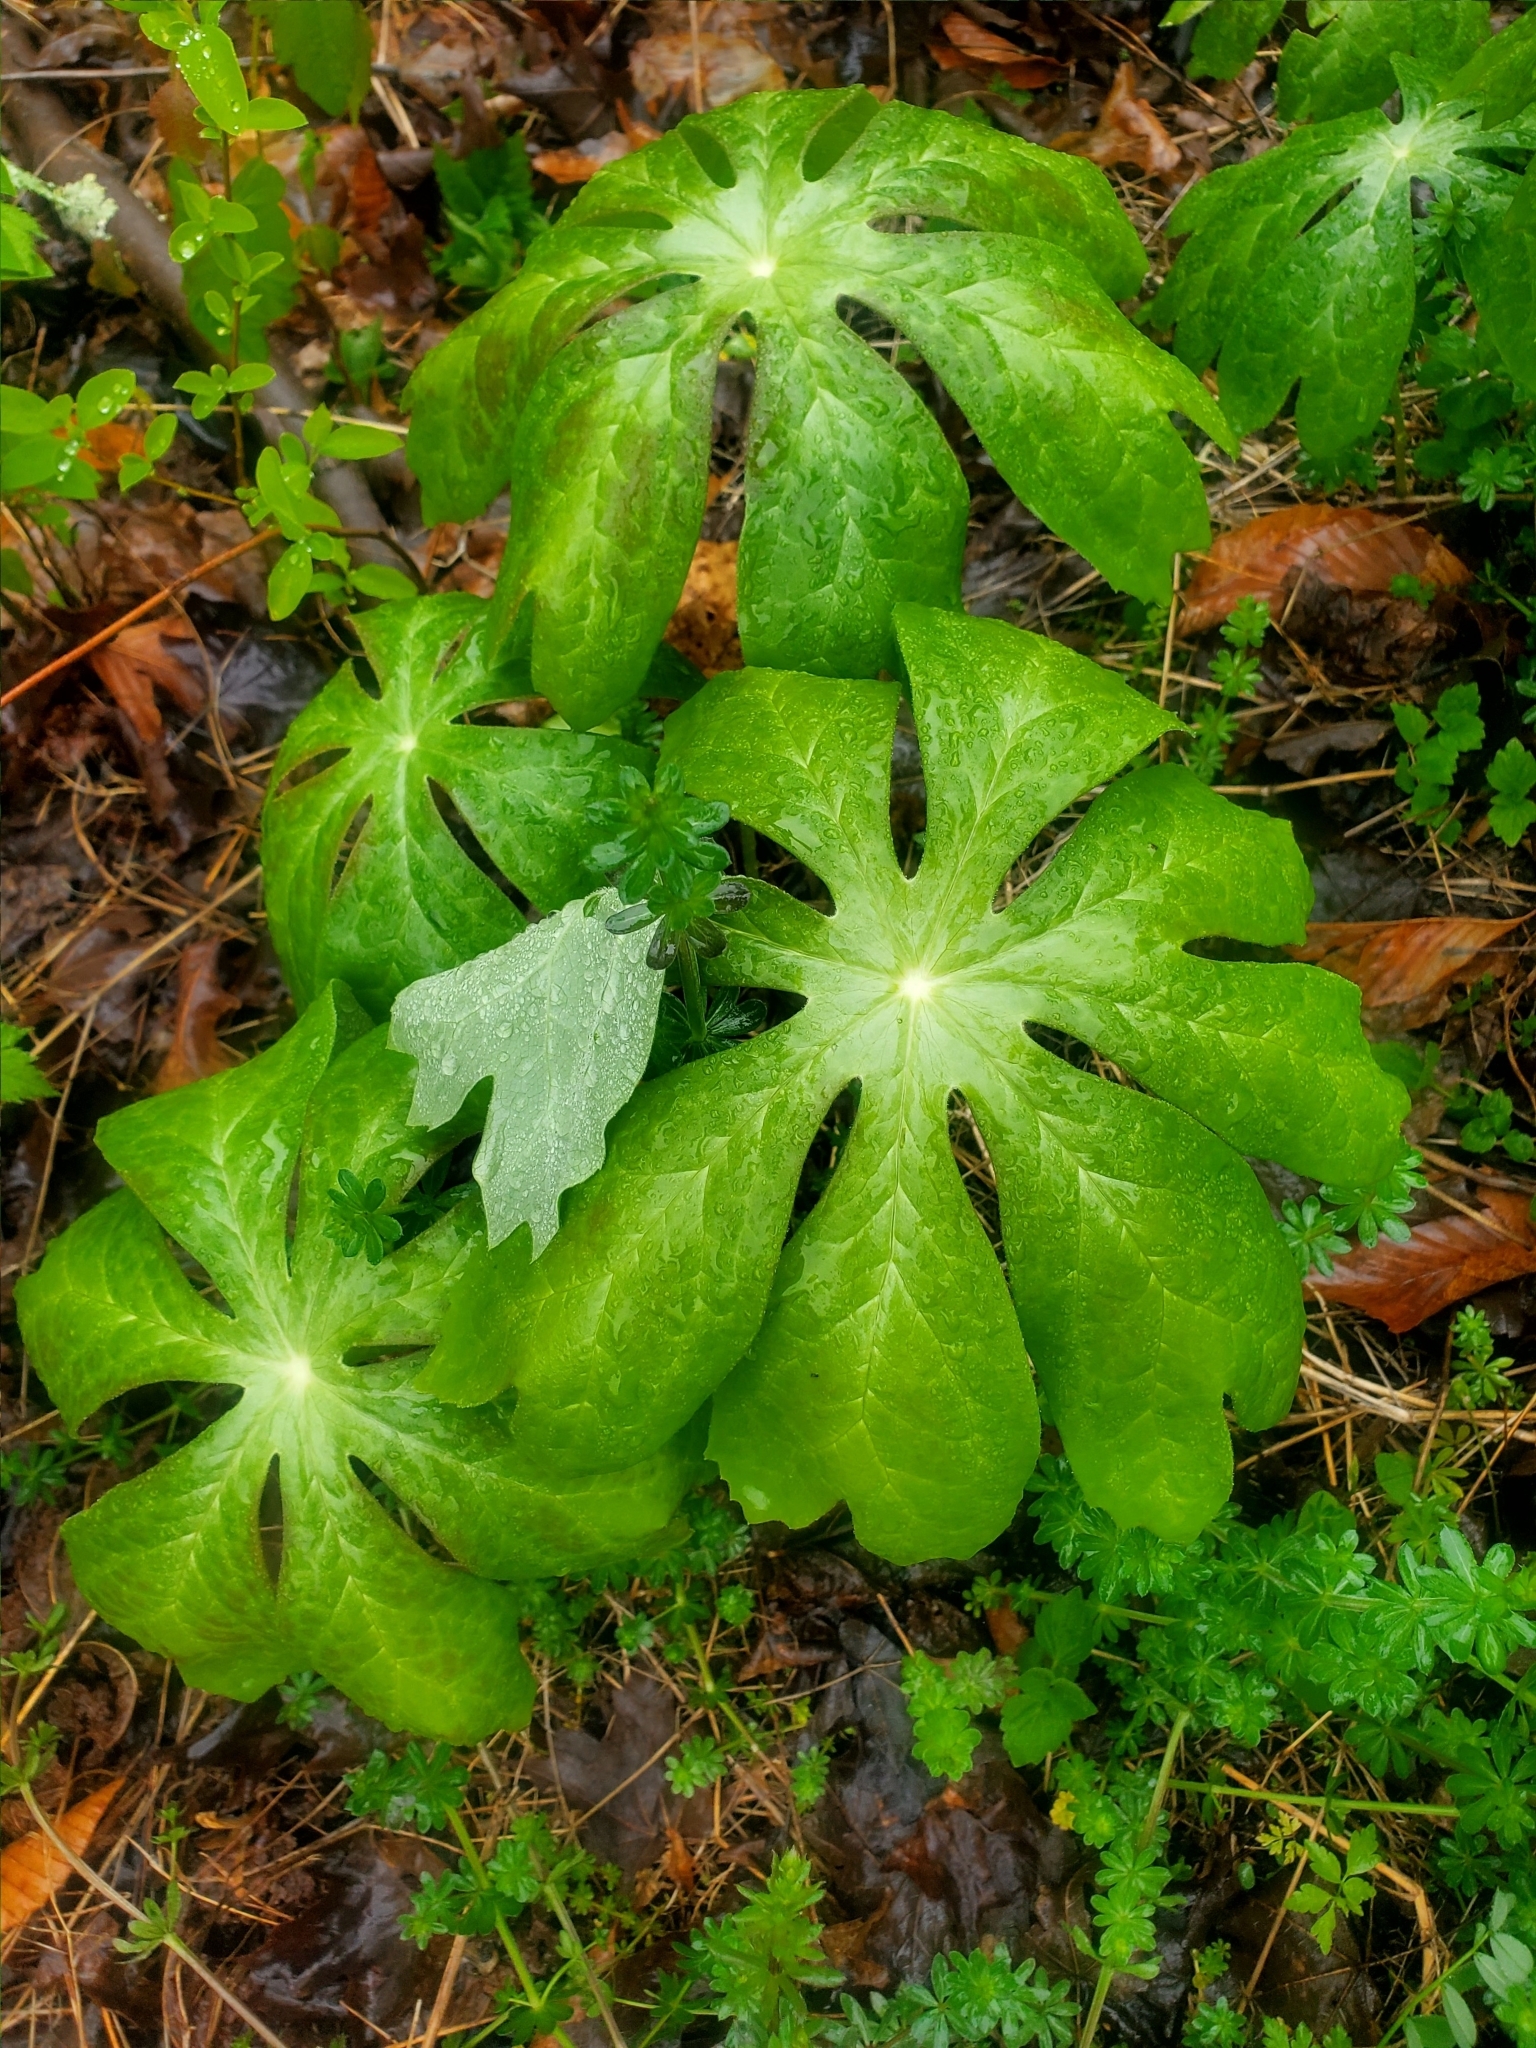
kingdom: Plantae
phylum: Tracheophyta
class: Magnoliopsida
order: Ranunculales
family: Berberidaceae
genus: Podophyllum
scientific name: Podophyllum peltatum
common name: Wild mandrake
